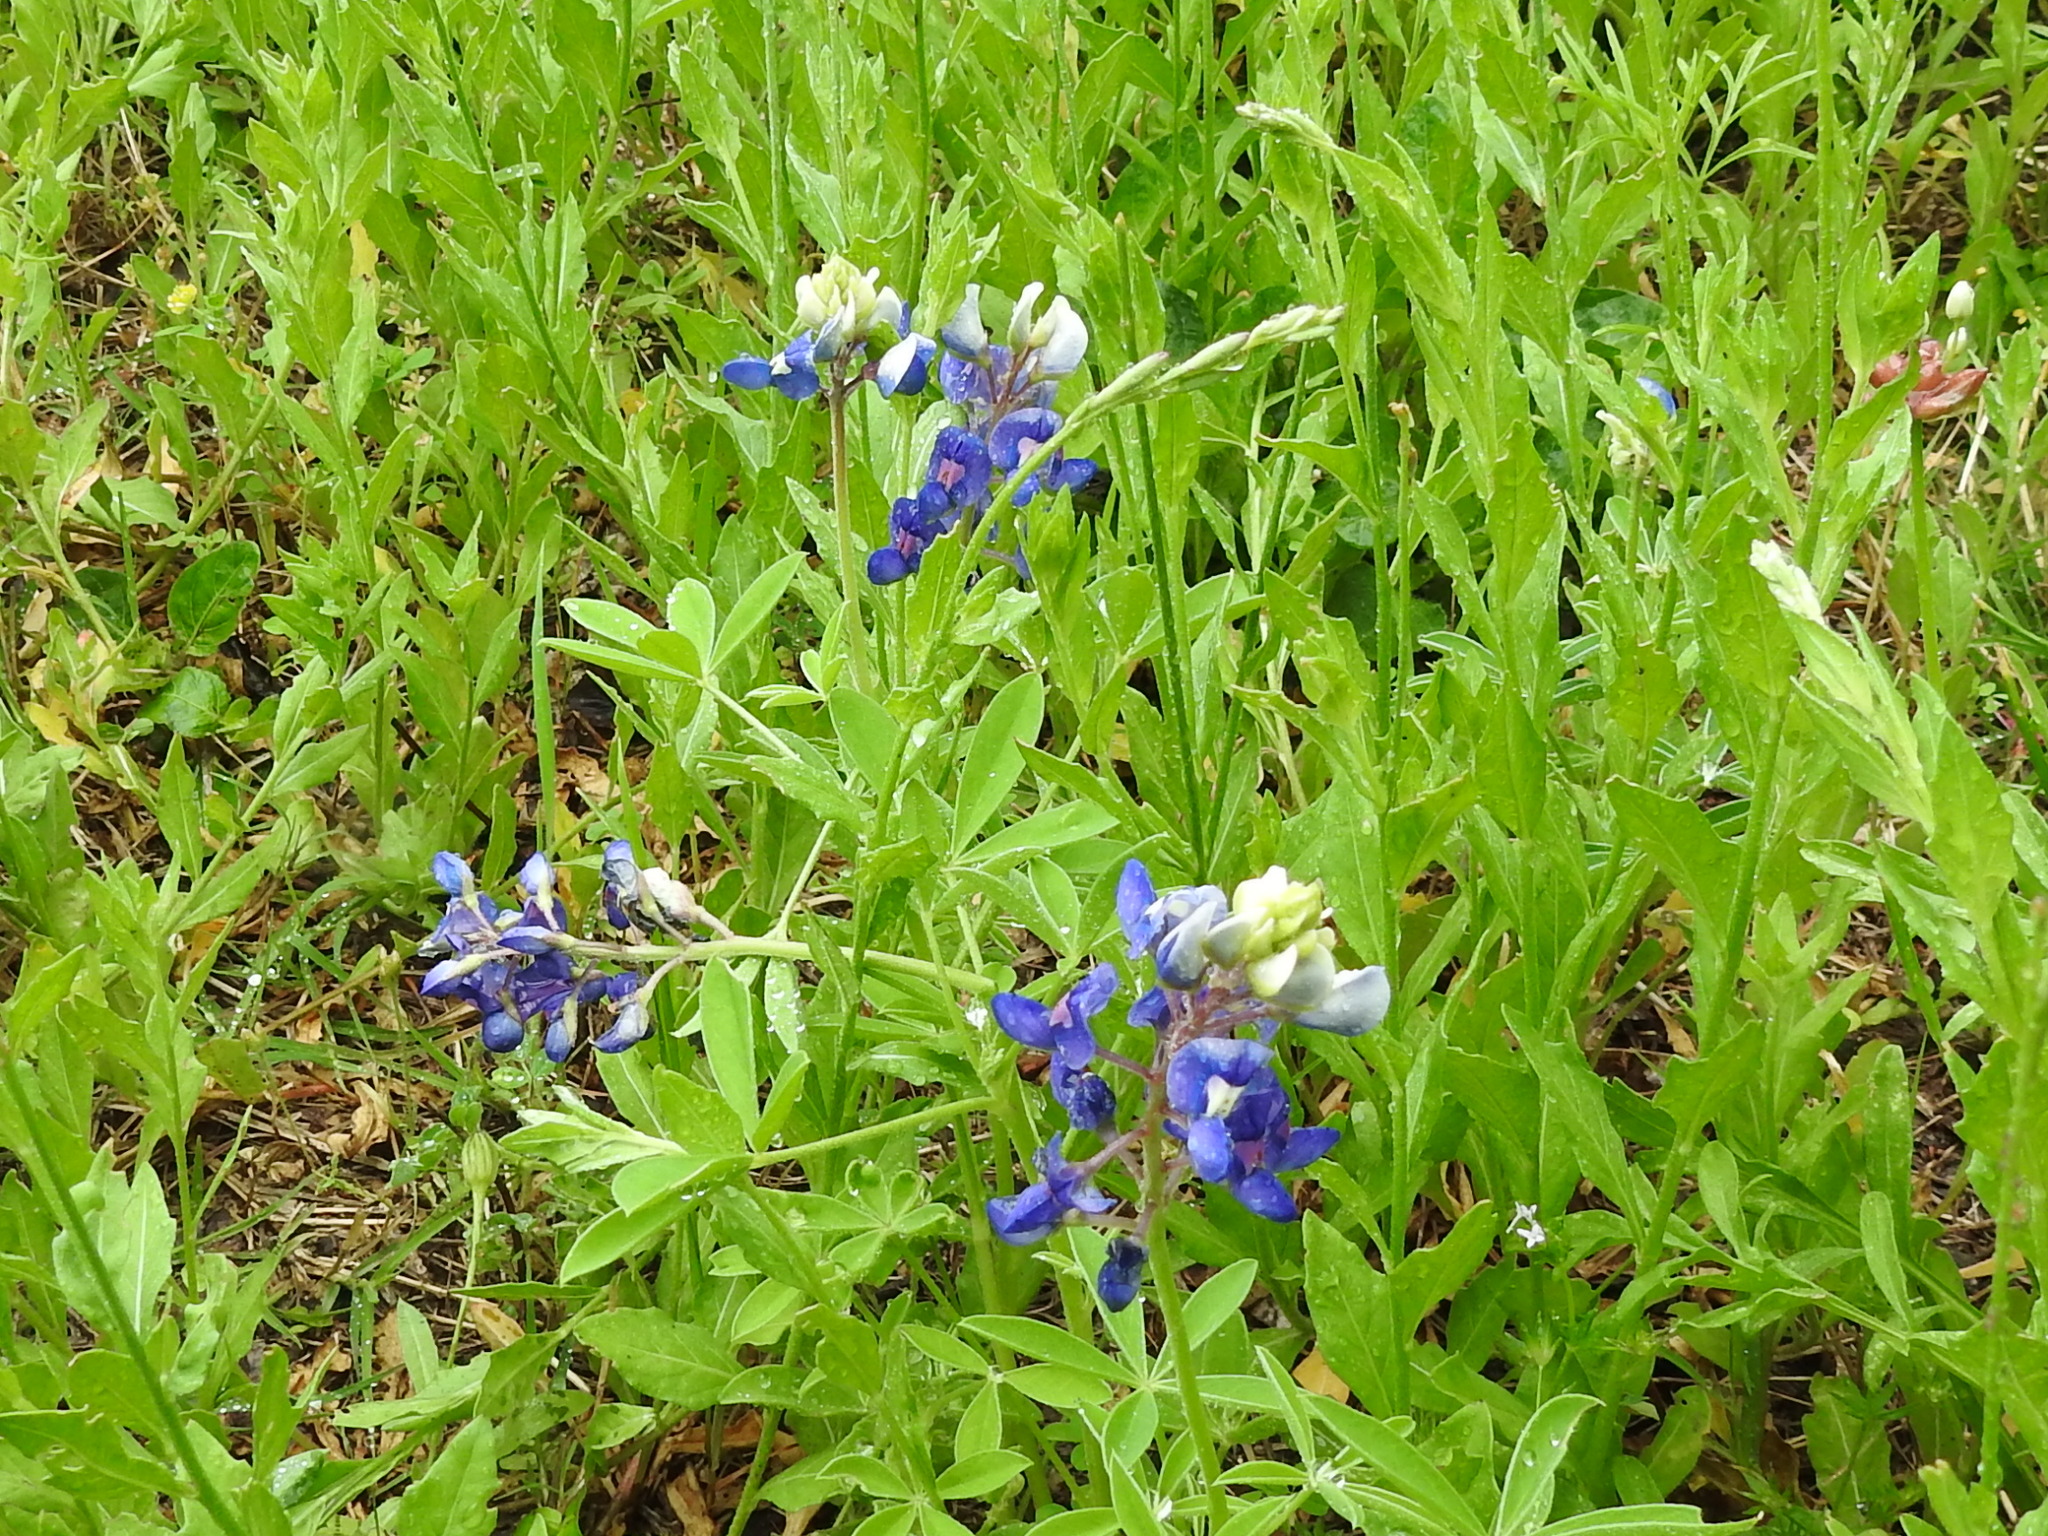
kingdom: Plantae
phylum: Tracheophyta
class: Magnoliopsida
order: Fabales
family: Fabaceae
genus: Lupinus
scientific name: Lupinus texensis
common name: Texas bluebonnet
